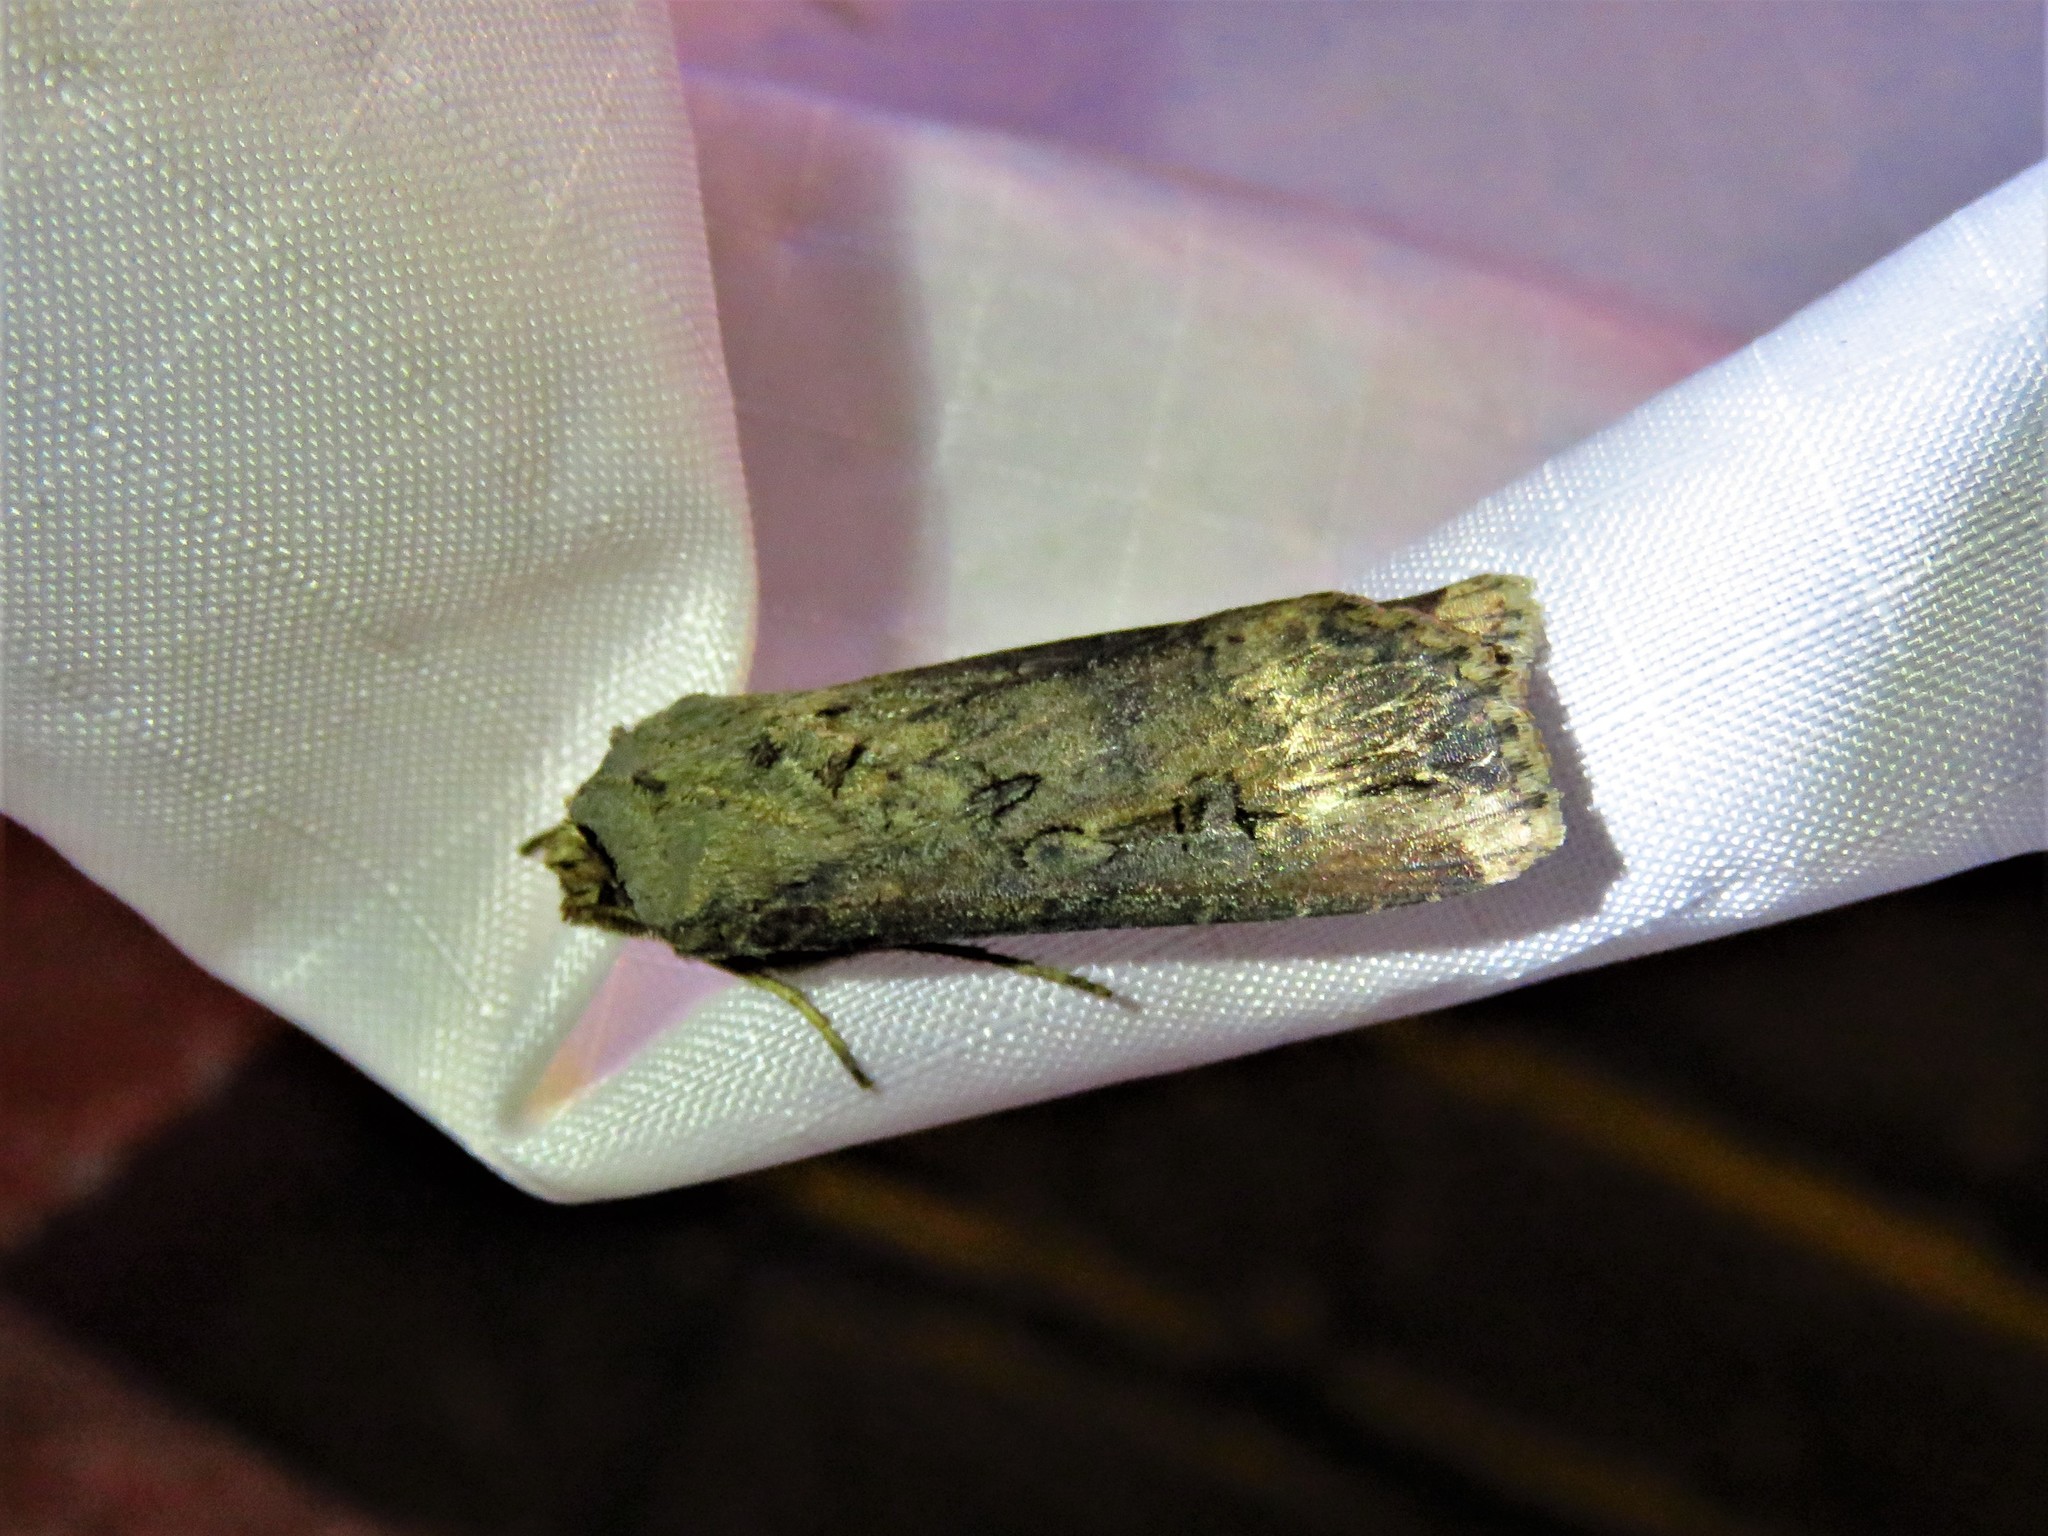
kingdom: Animalia
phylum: Arthropoda
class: Insecta
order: Lepidoptera
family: Noctuidae
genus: Agrotis
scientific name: Agrotis ipsilon
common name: Dark sword-grass
